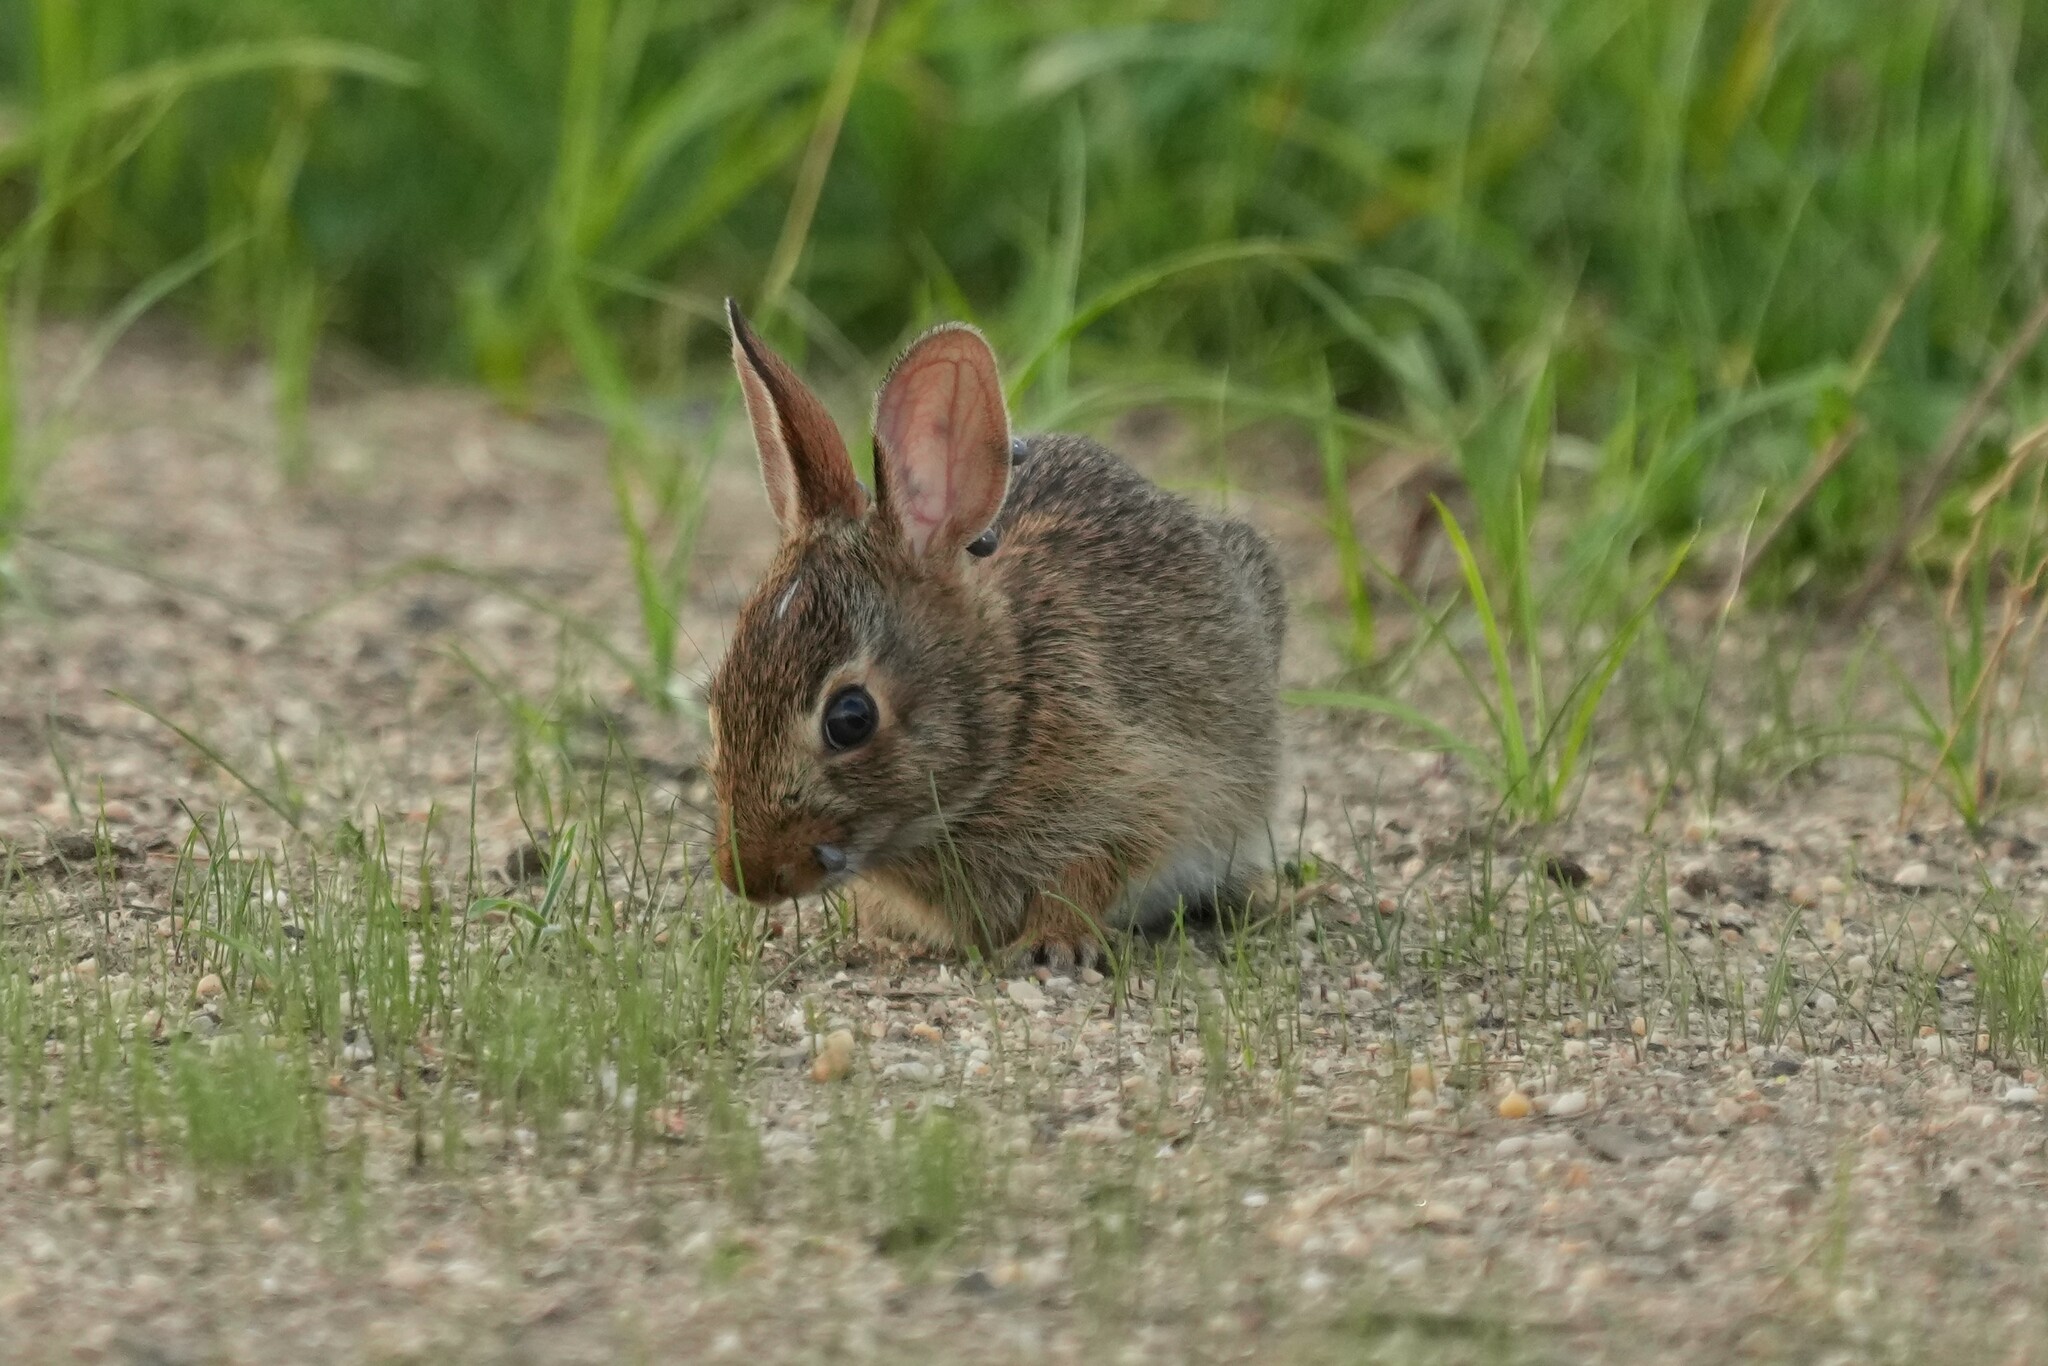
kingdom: Animalia
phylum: Chordata
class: Mammalia
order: Lagomorpha
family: Leporidae
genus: Sylvilagus
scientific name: Sylvilagus floridanus
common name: Eastern cottontail
